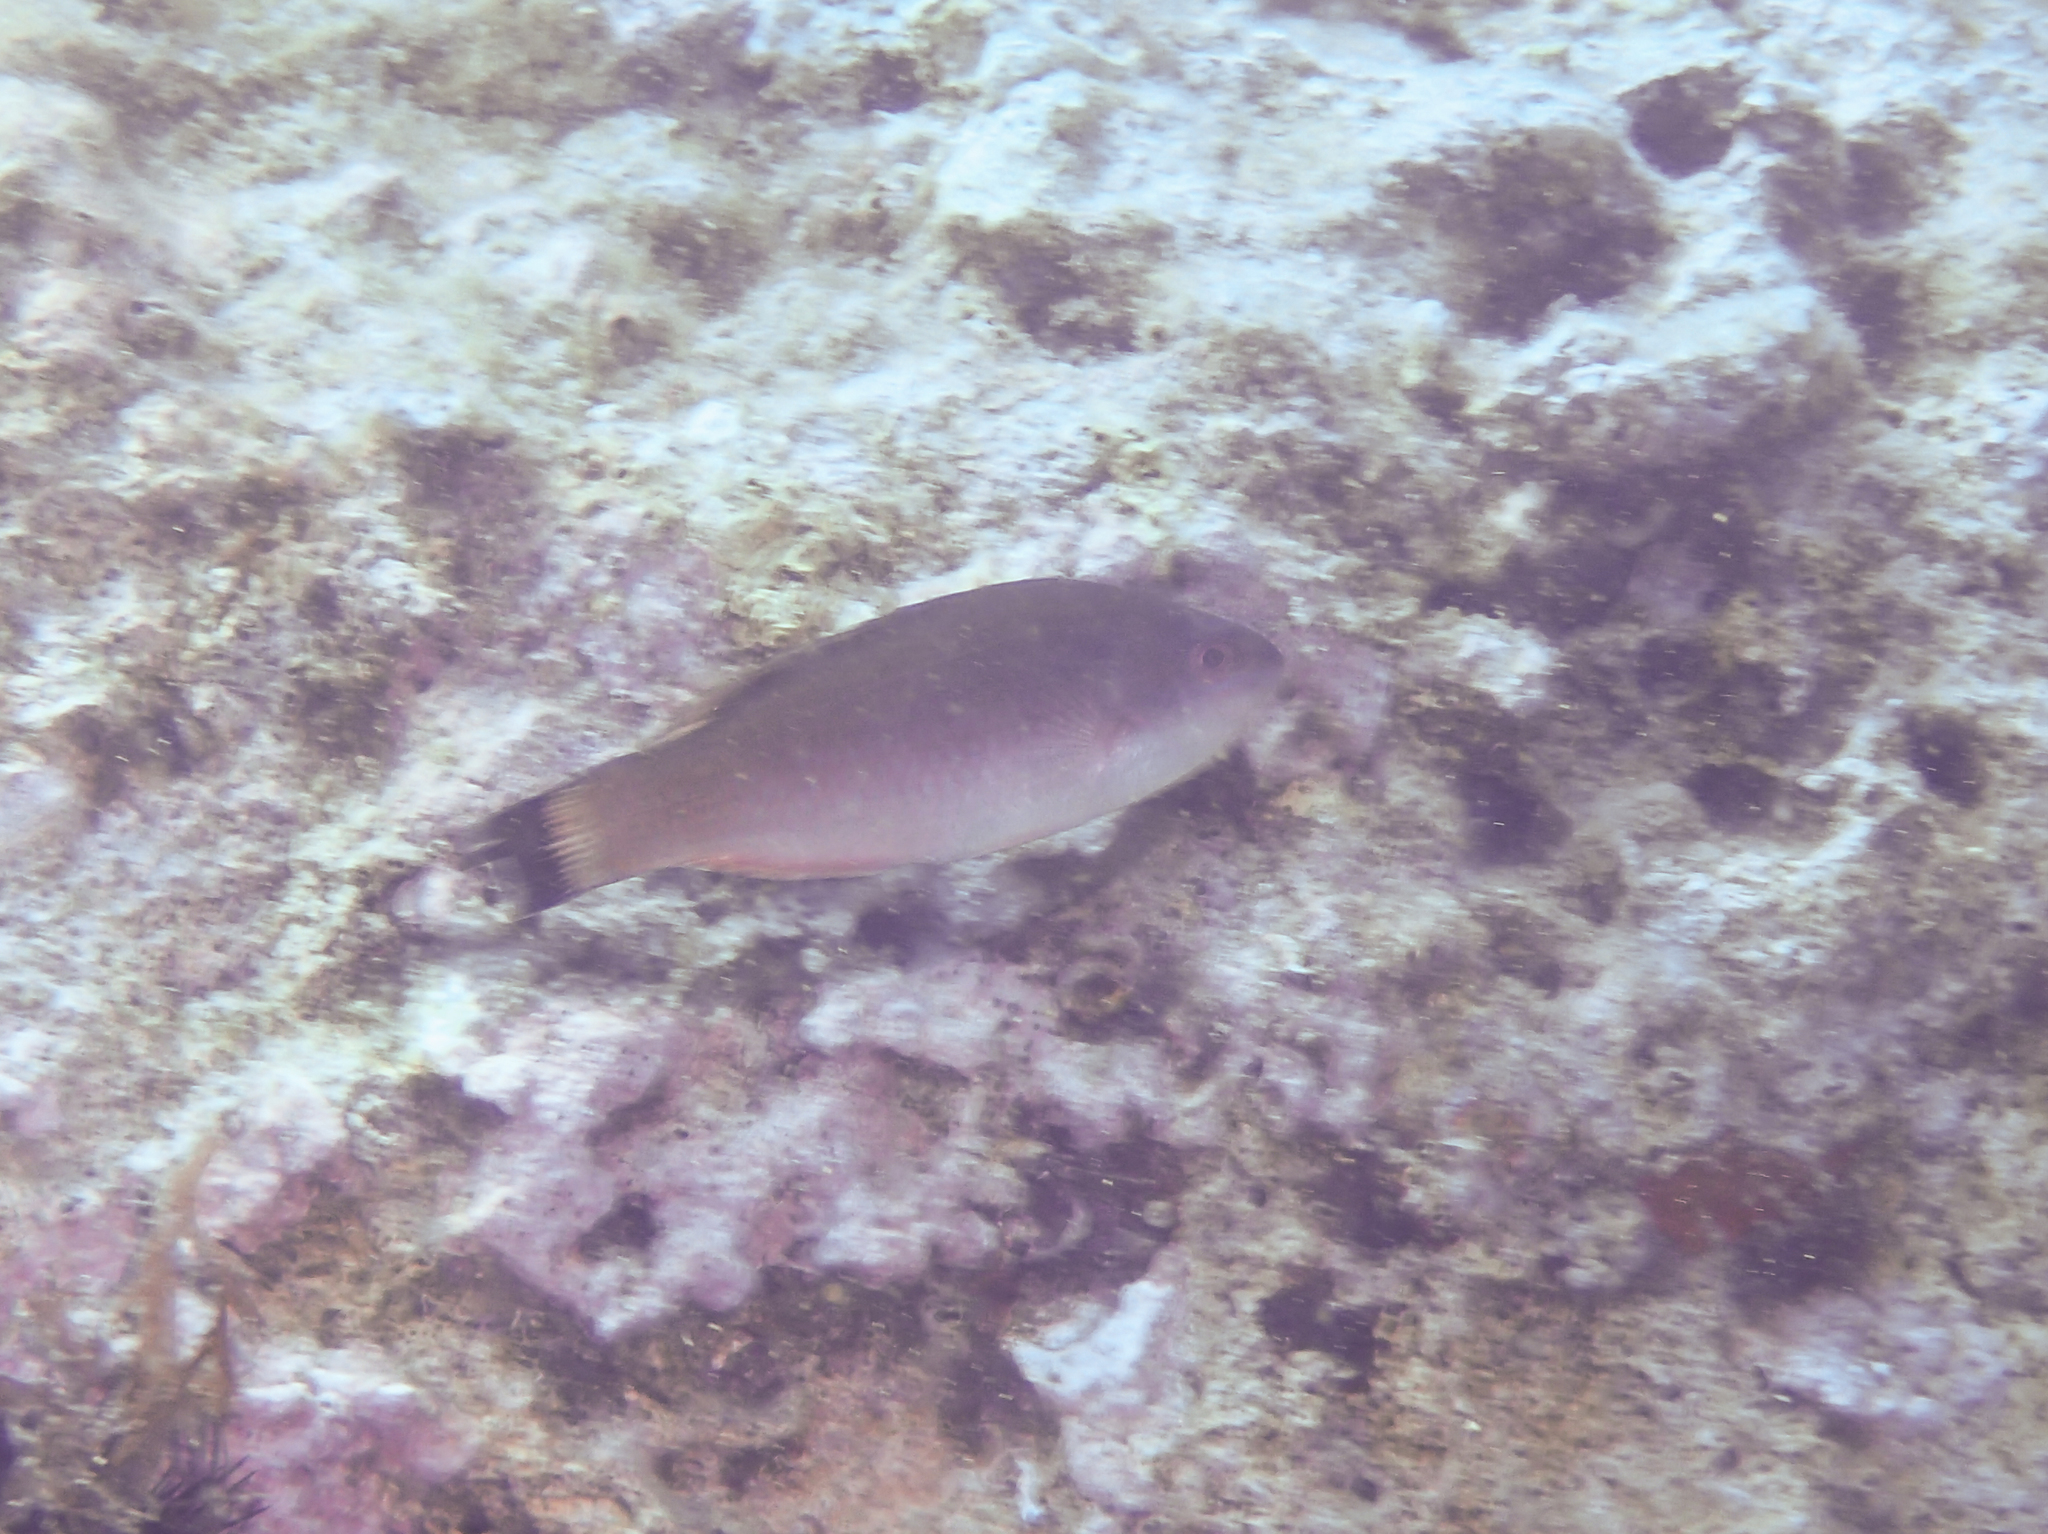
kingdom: Animalia
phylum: Chordata
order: Perciformes
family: Labridae
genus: Centrolabrus
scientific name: Centrolabrus melanocercus
